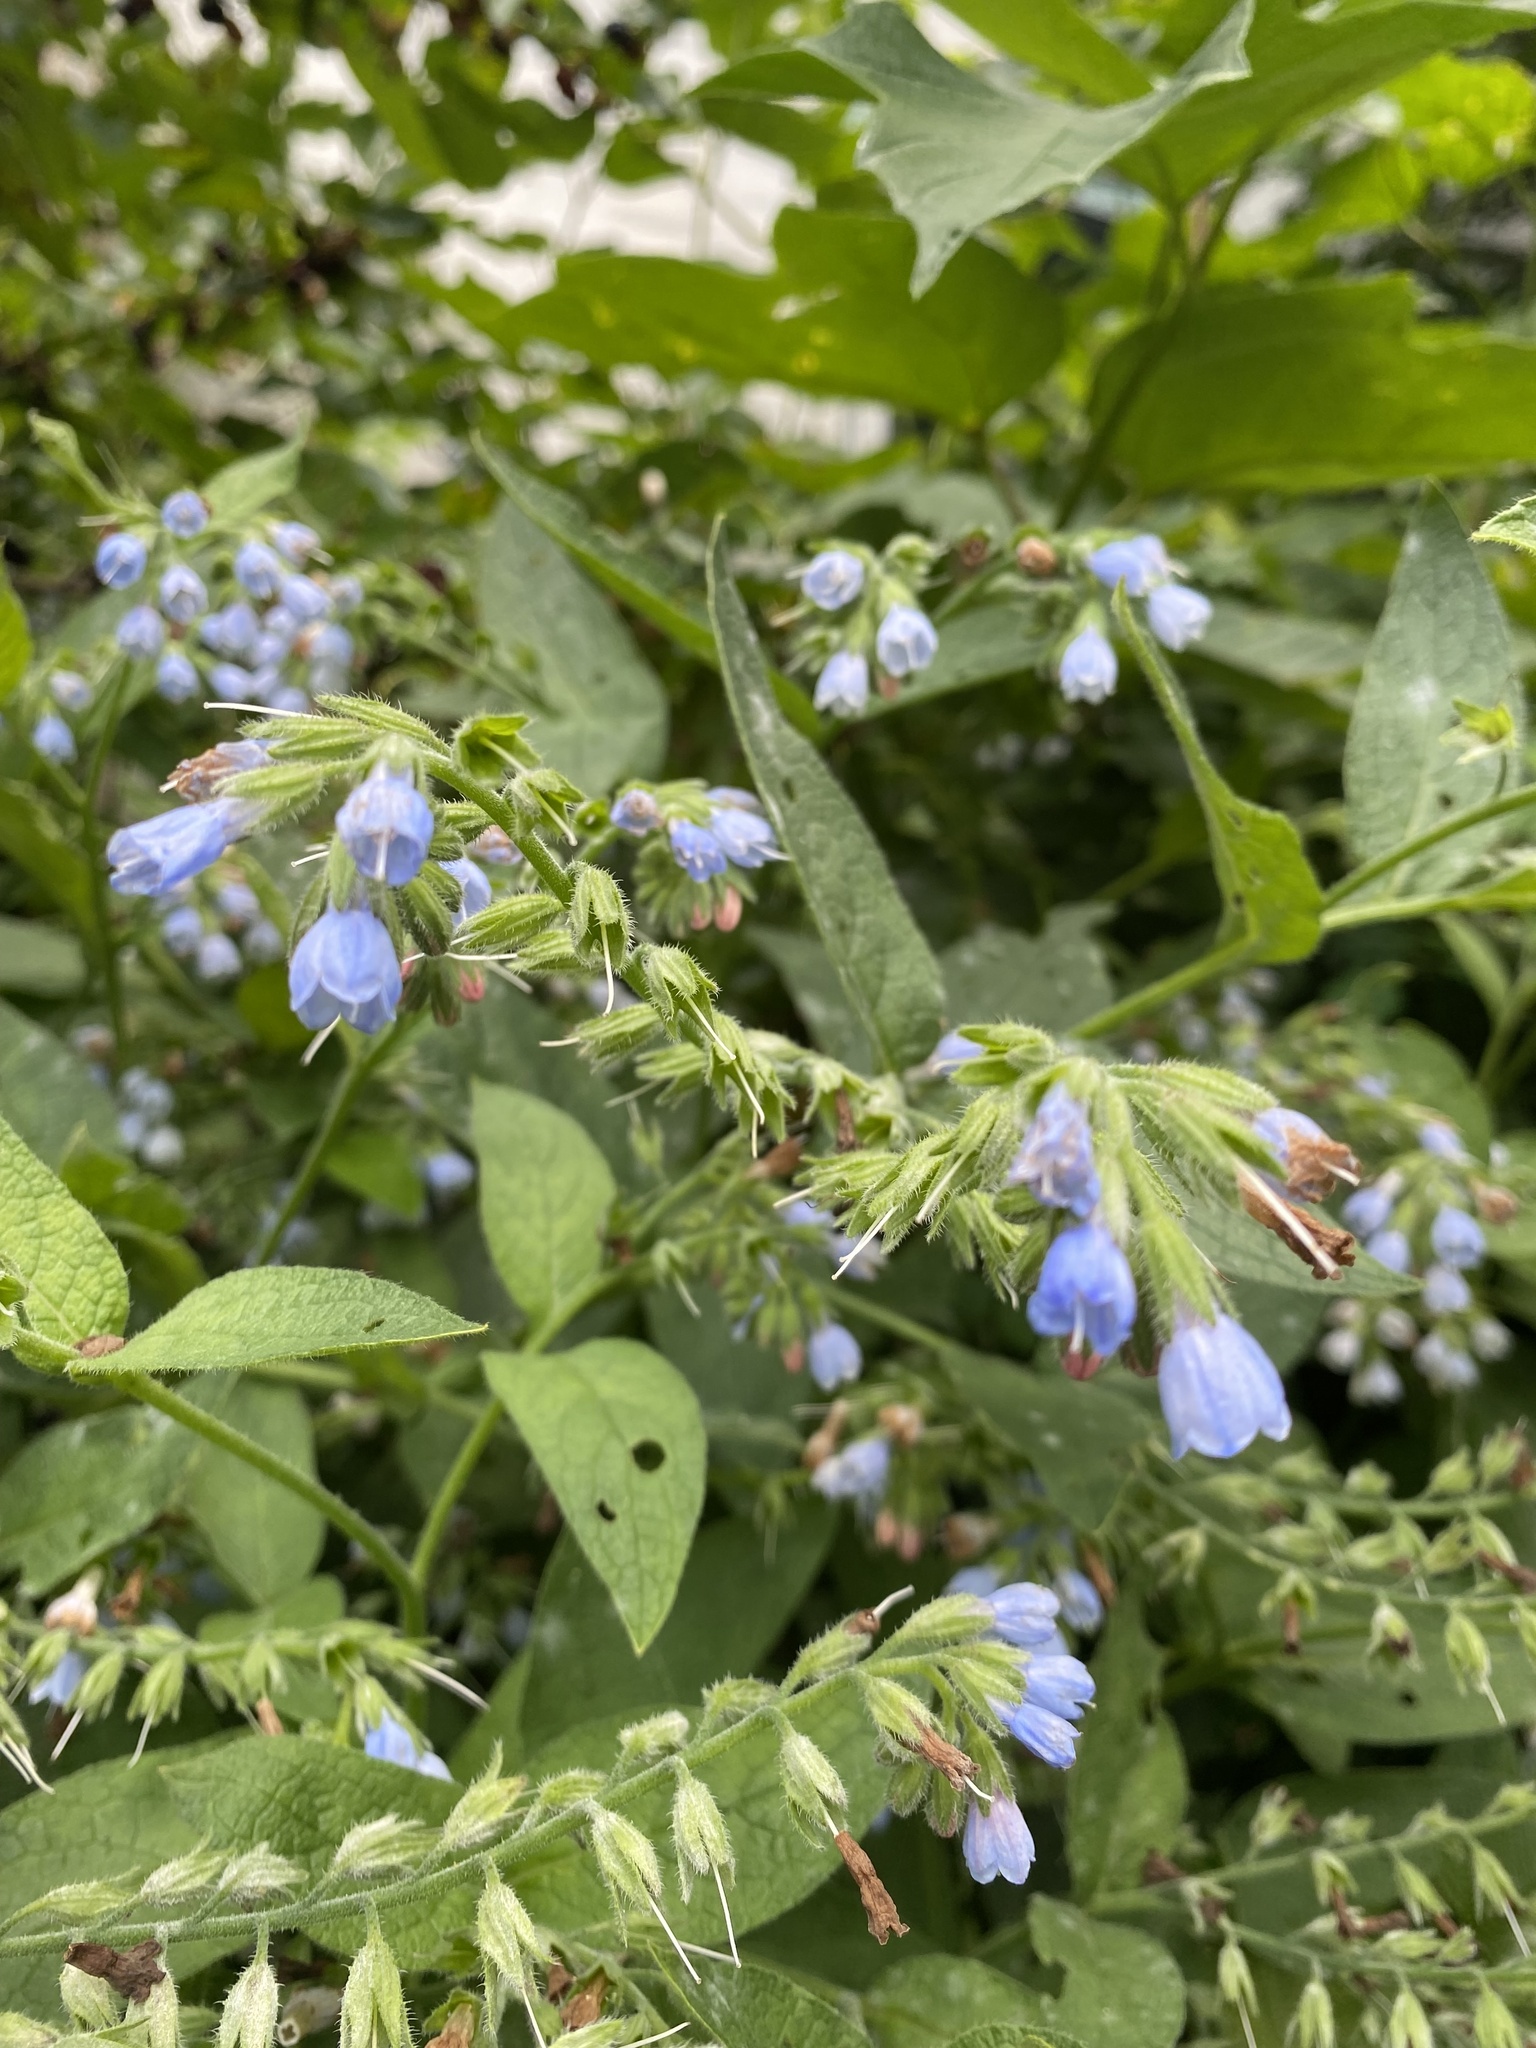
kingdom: Plantae
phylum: Tracheophyta
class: Magnoliopsida
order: Boraginales
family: Boraginaceae
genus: Symphytum
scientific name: Symphytum caucasicum
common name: Caucasian comfrey
